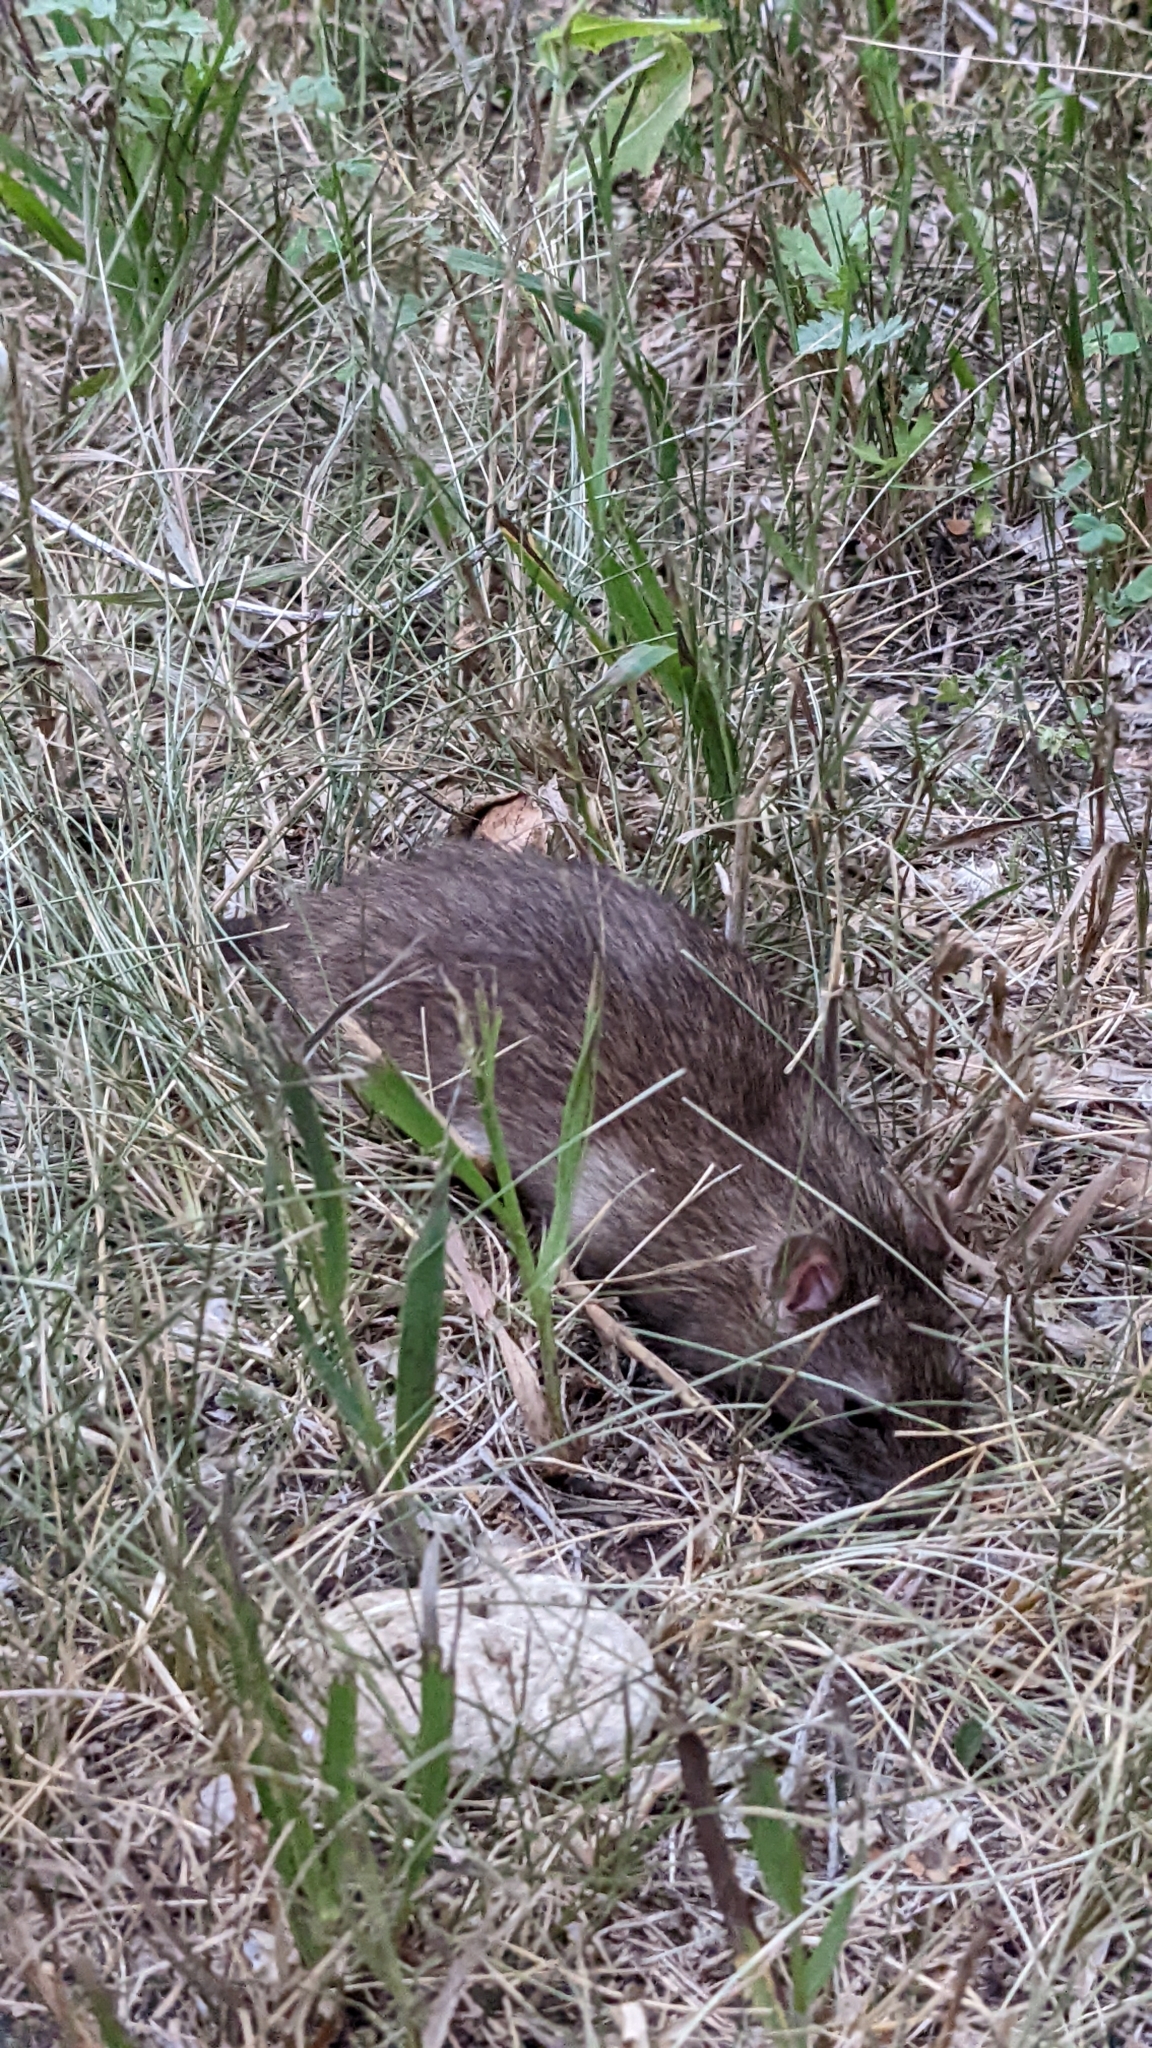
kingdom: Animalia
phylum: Chordata
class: Mammalia
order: Rodentia
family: Muridae
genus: Rattus
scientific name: Rattus norvegicus
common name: Brown rat
